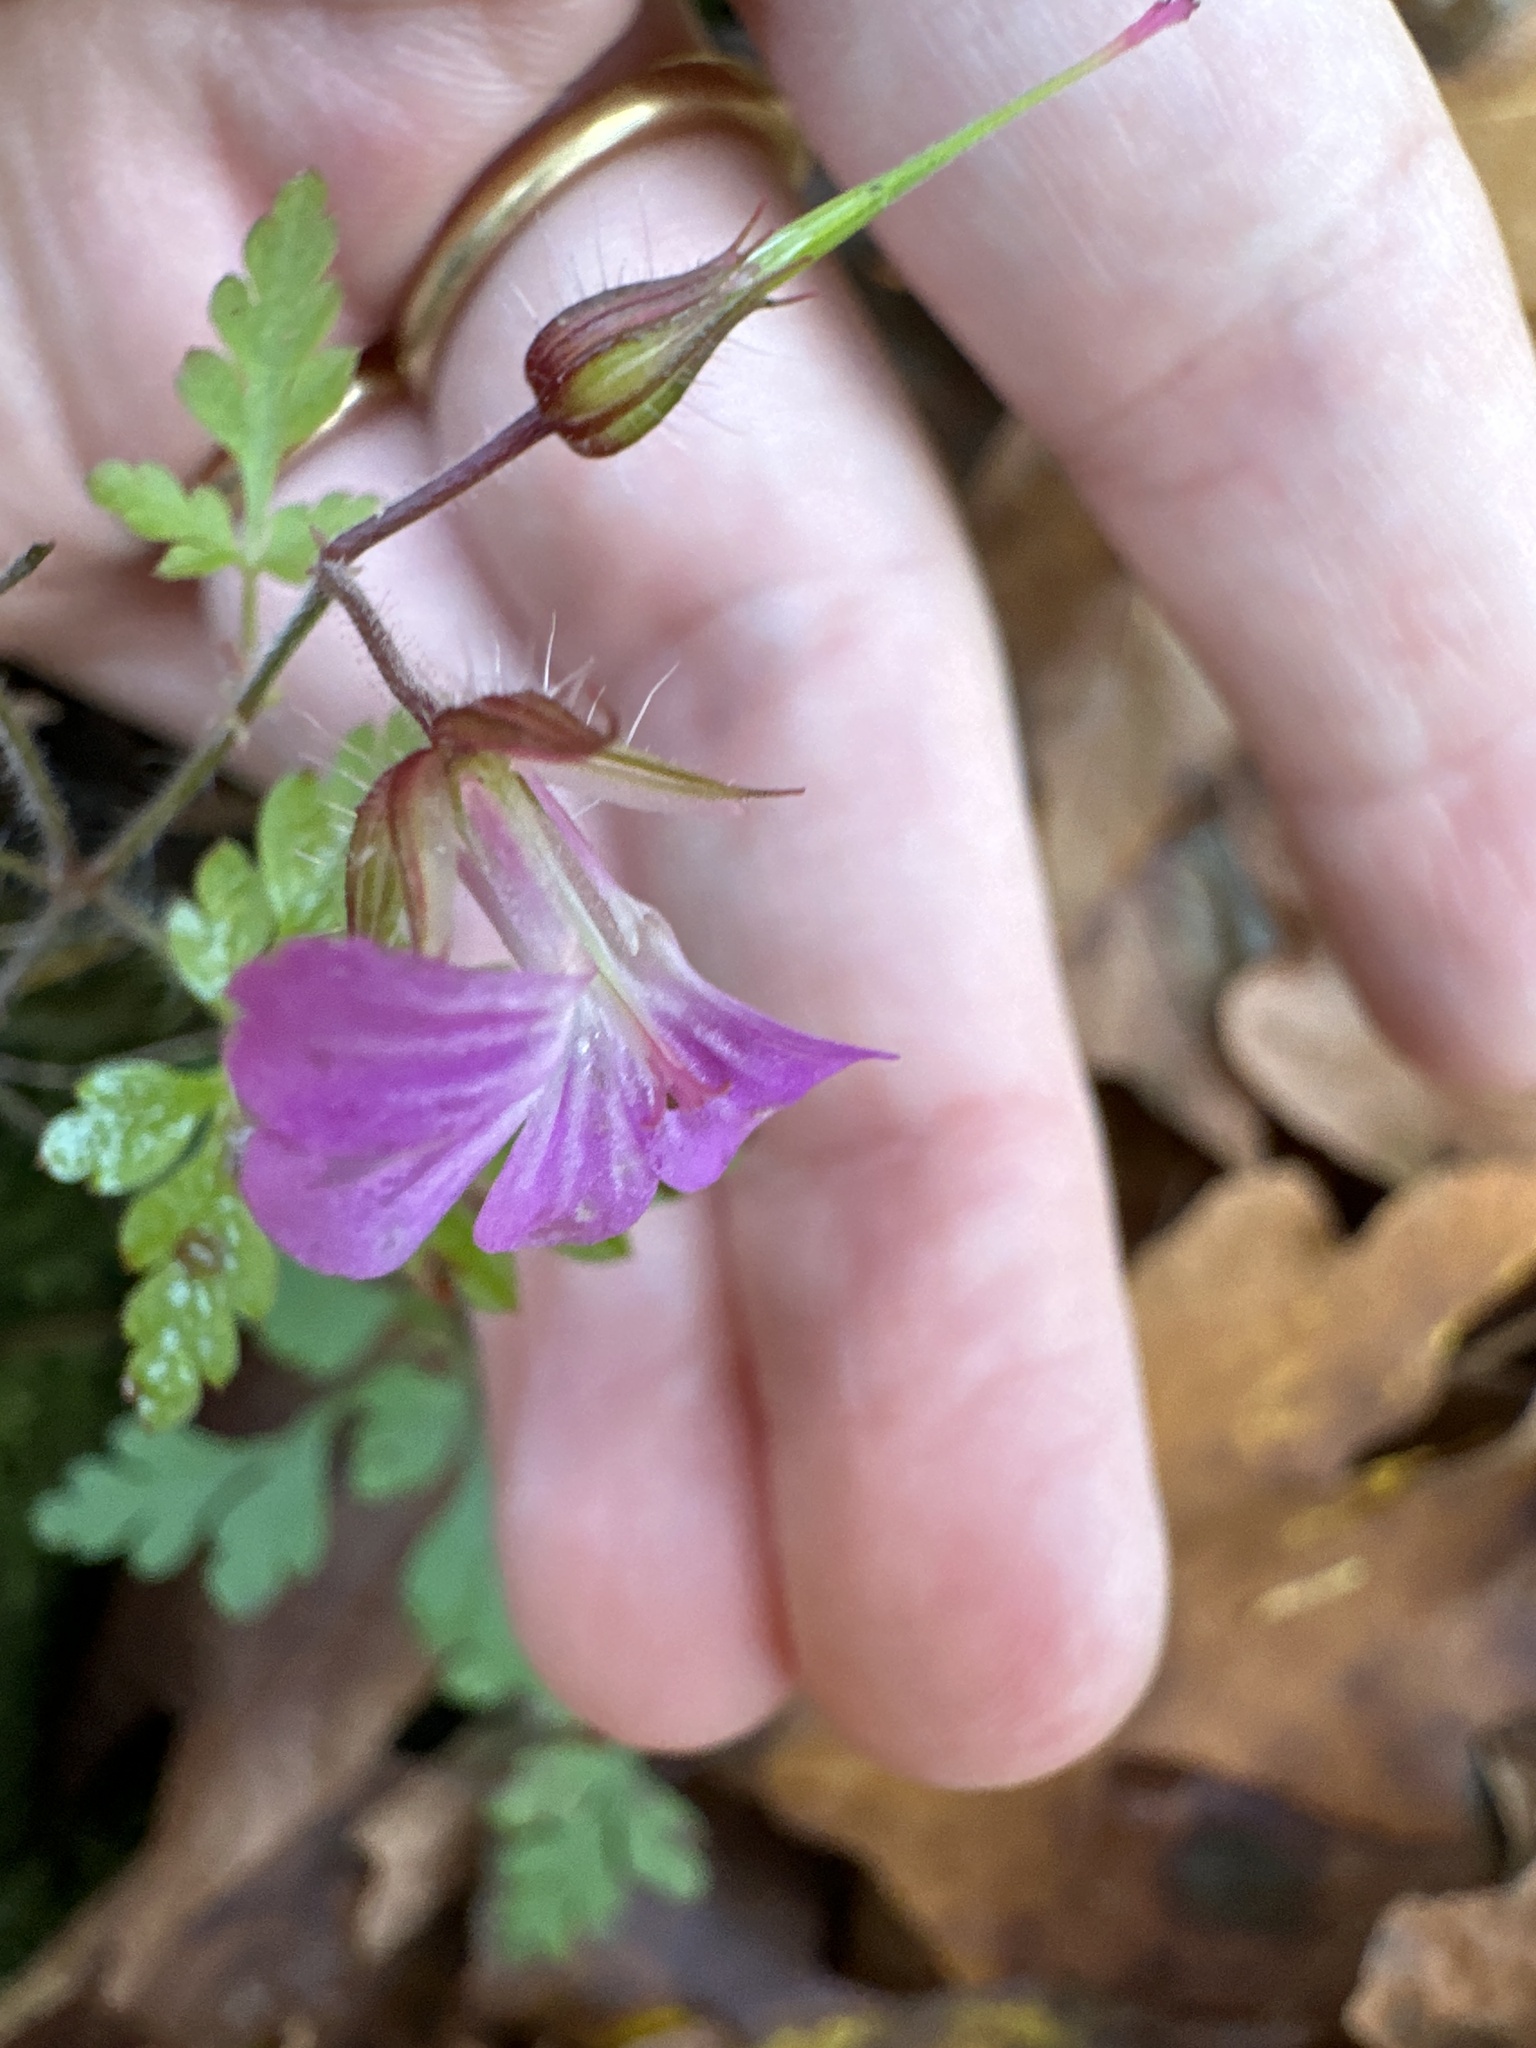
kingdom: Plantae
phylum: Tracheophyta
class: Magnoliopsida
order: Geraniales
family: Geraniaceae
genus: Geranium
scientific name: Geranium robertianum
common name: Herb-robert
